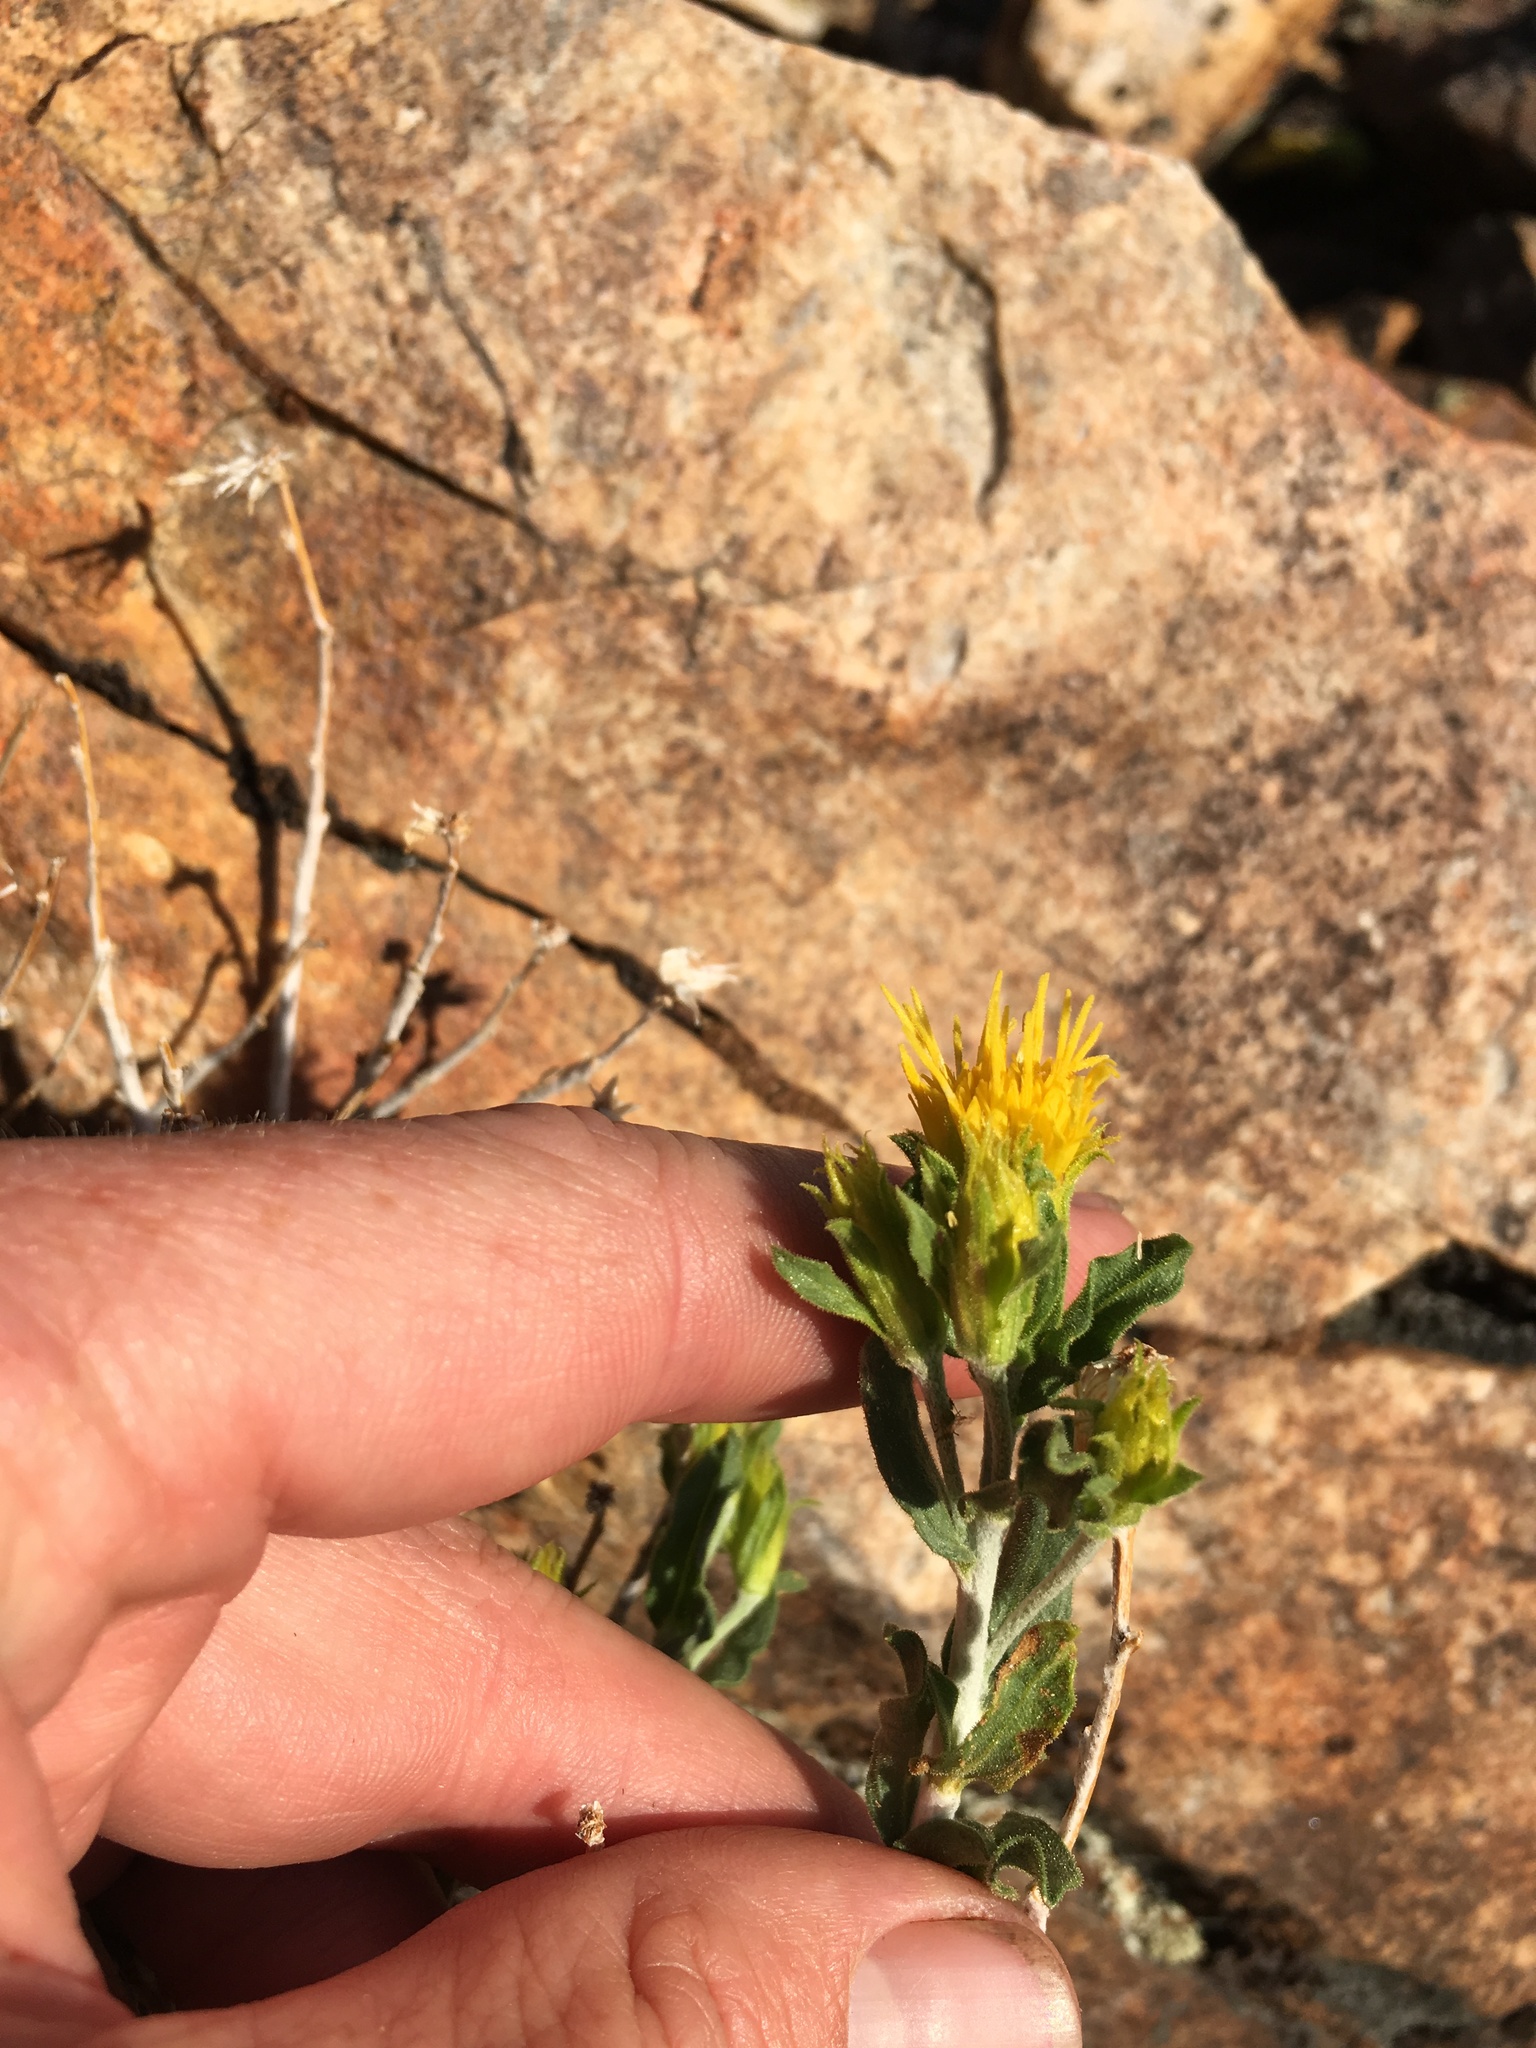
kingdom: Plantae
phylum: Tracheophyta
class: Magnoliopsida
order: Asterales
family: Asteraceae
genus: Ericameria
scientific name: Ericameria discoidea
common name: Sharp-scale goldenweed
